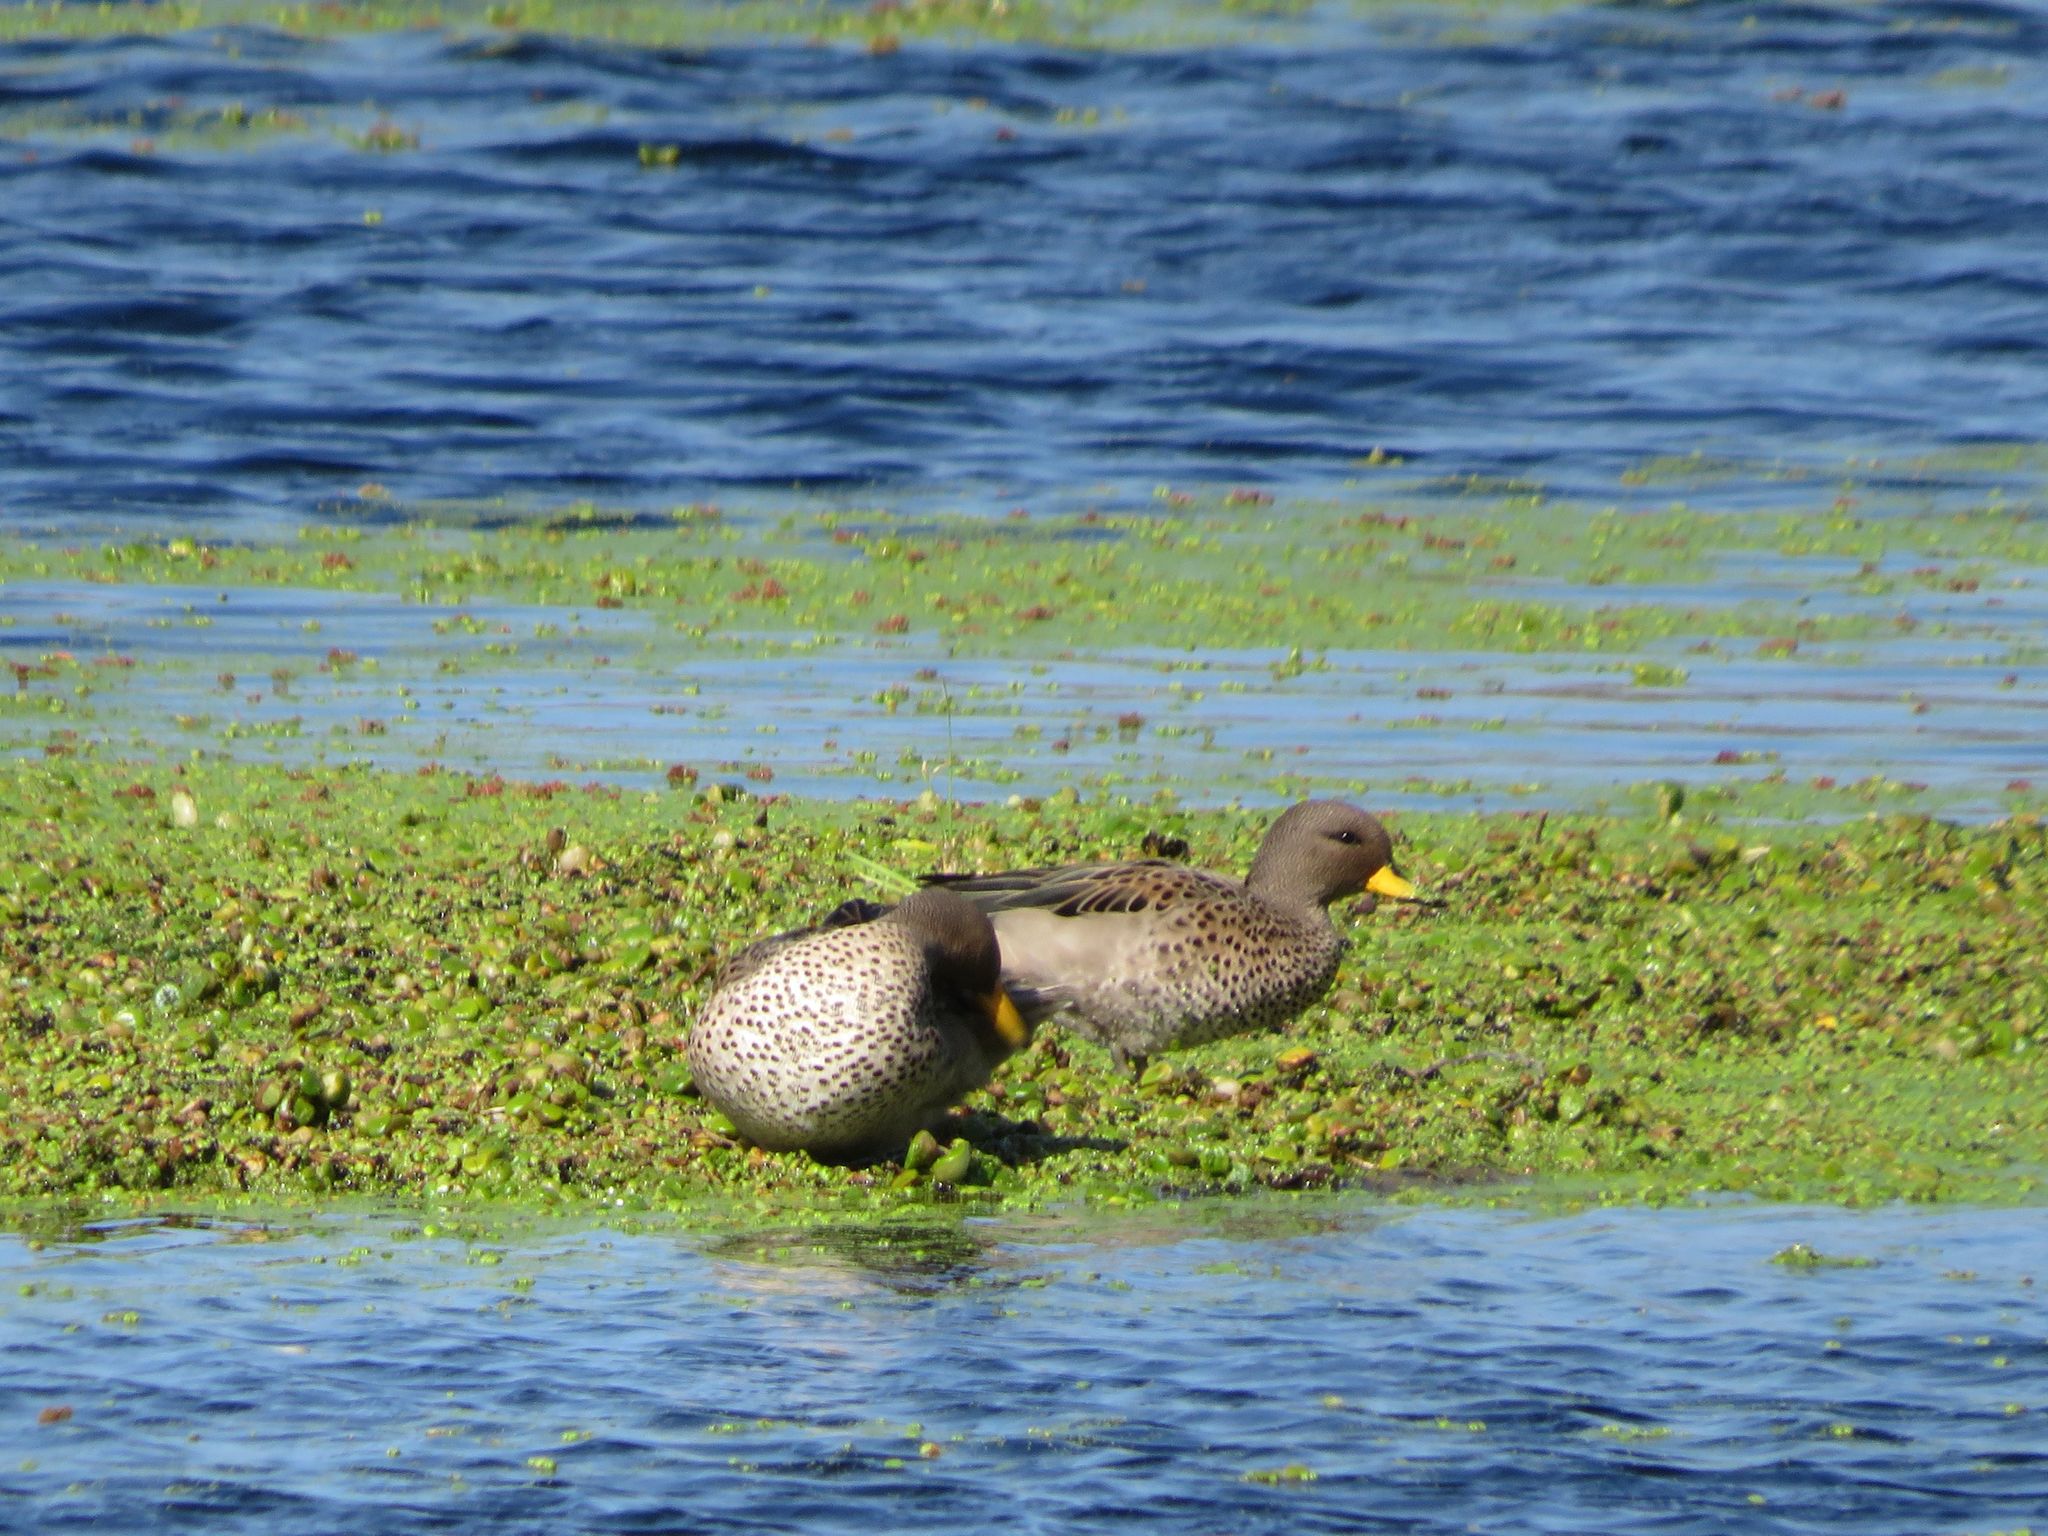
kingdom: Animalia
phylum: Chordata
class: Aves
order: Anseriformes
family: Anatidae
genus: Anas
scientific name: Anas flavirostris
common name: Yellow-billed teal
